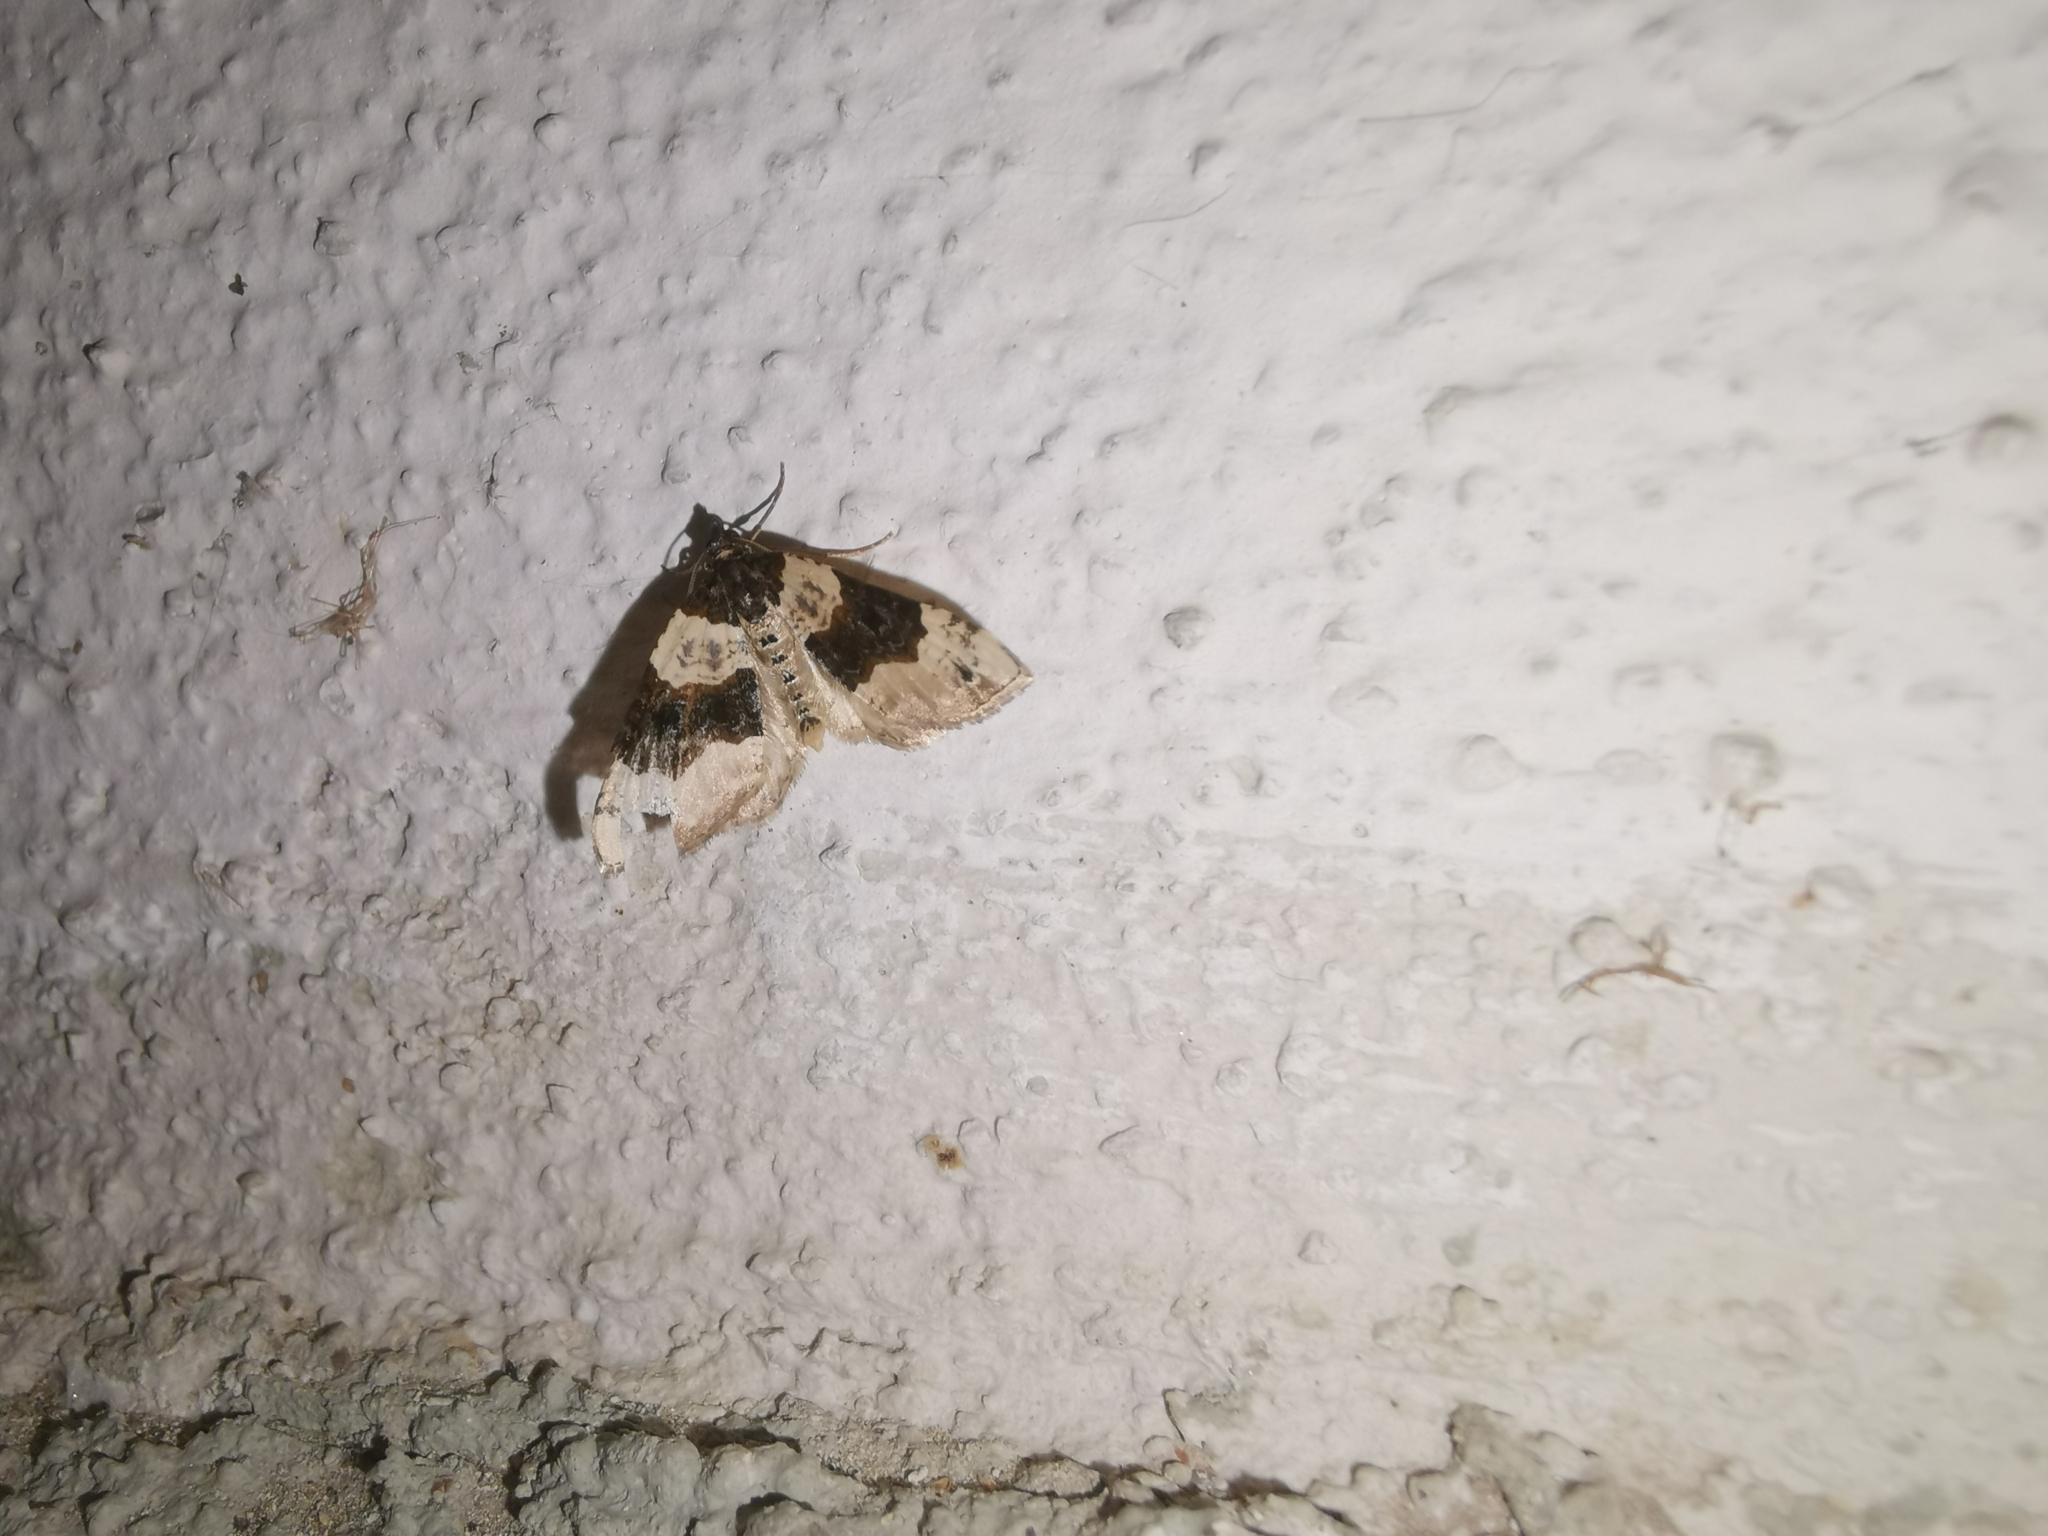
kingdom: Animalia
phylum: Arthropoda
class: Insecta
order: Lepidoptera
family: Geometridae
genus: Cosmorhoe
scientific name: Cosmorhoe ocellata
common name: Purple bar
